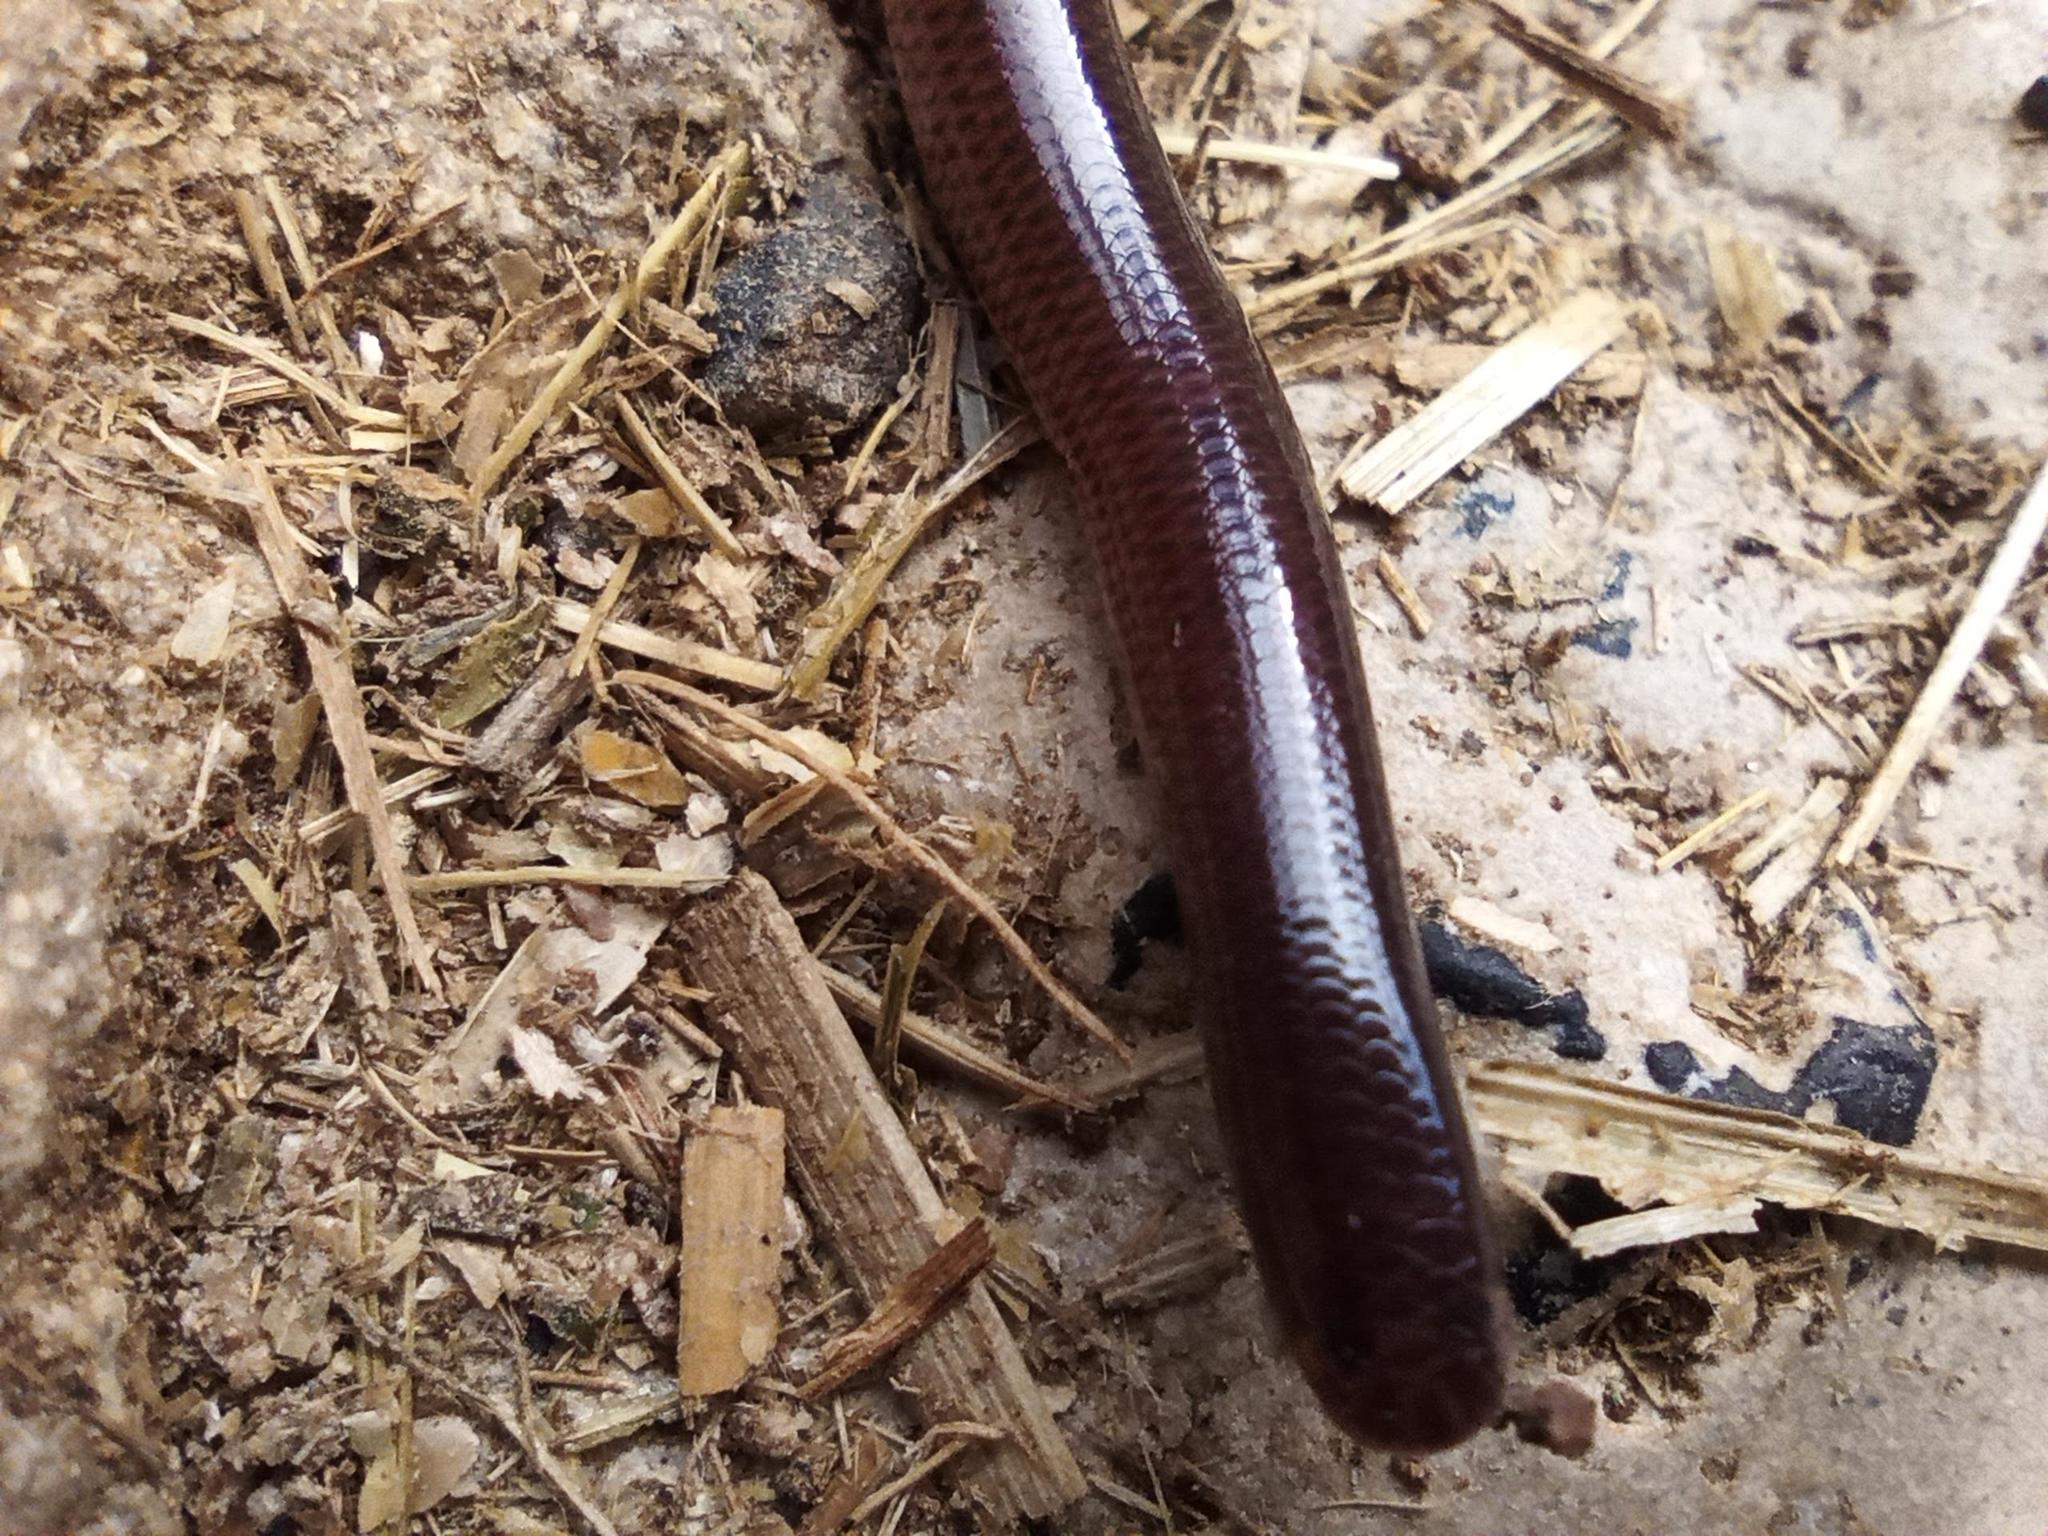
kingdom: Animalia
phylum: Chordata
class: Squamata
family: Typhlopidae
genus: Indotyphlops
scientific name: Indotyphlops braminus
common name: Brahminy blindsnake
